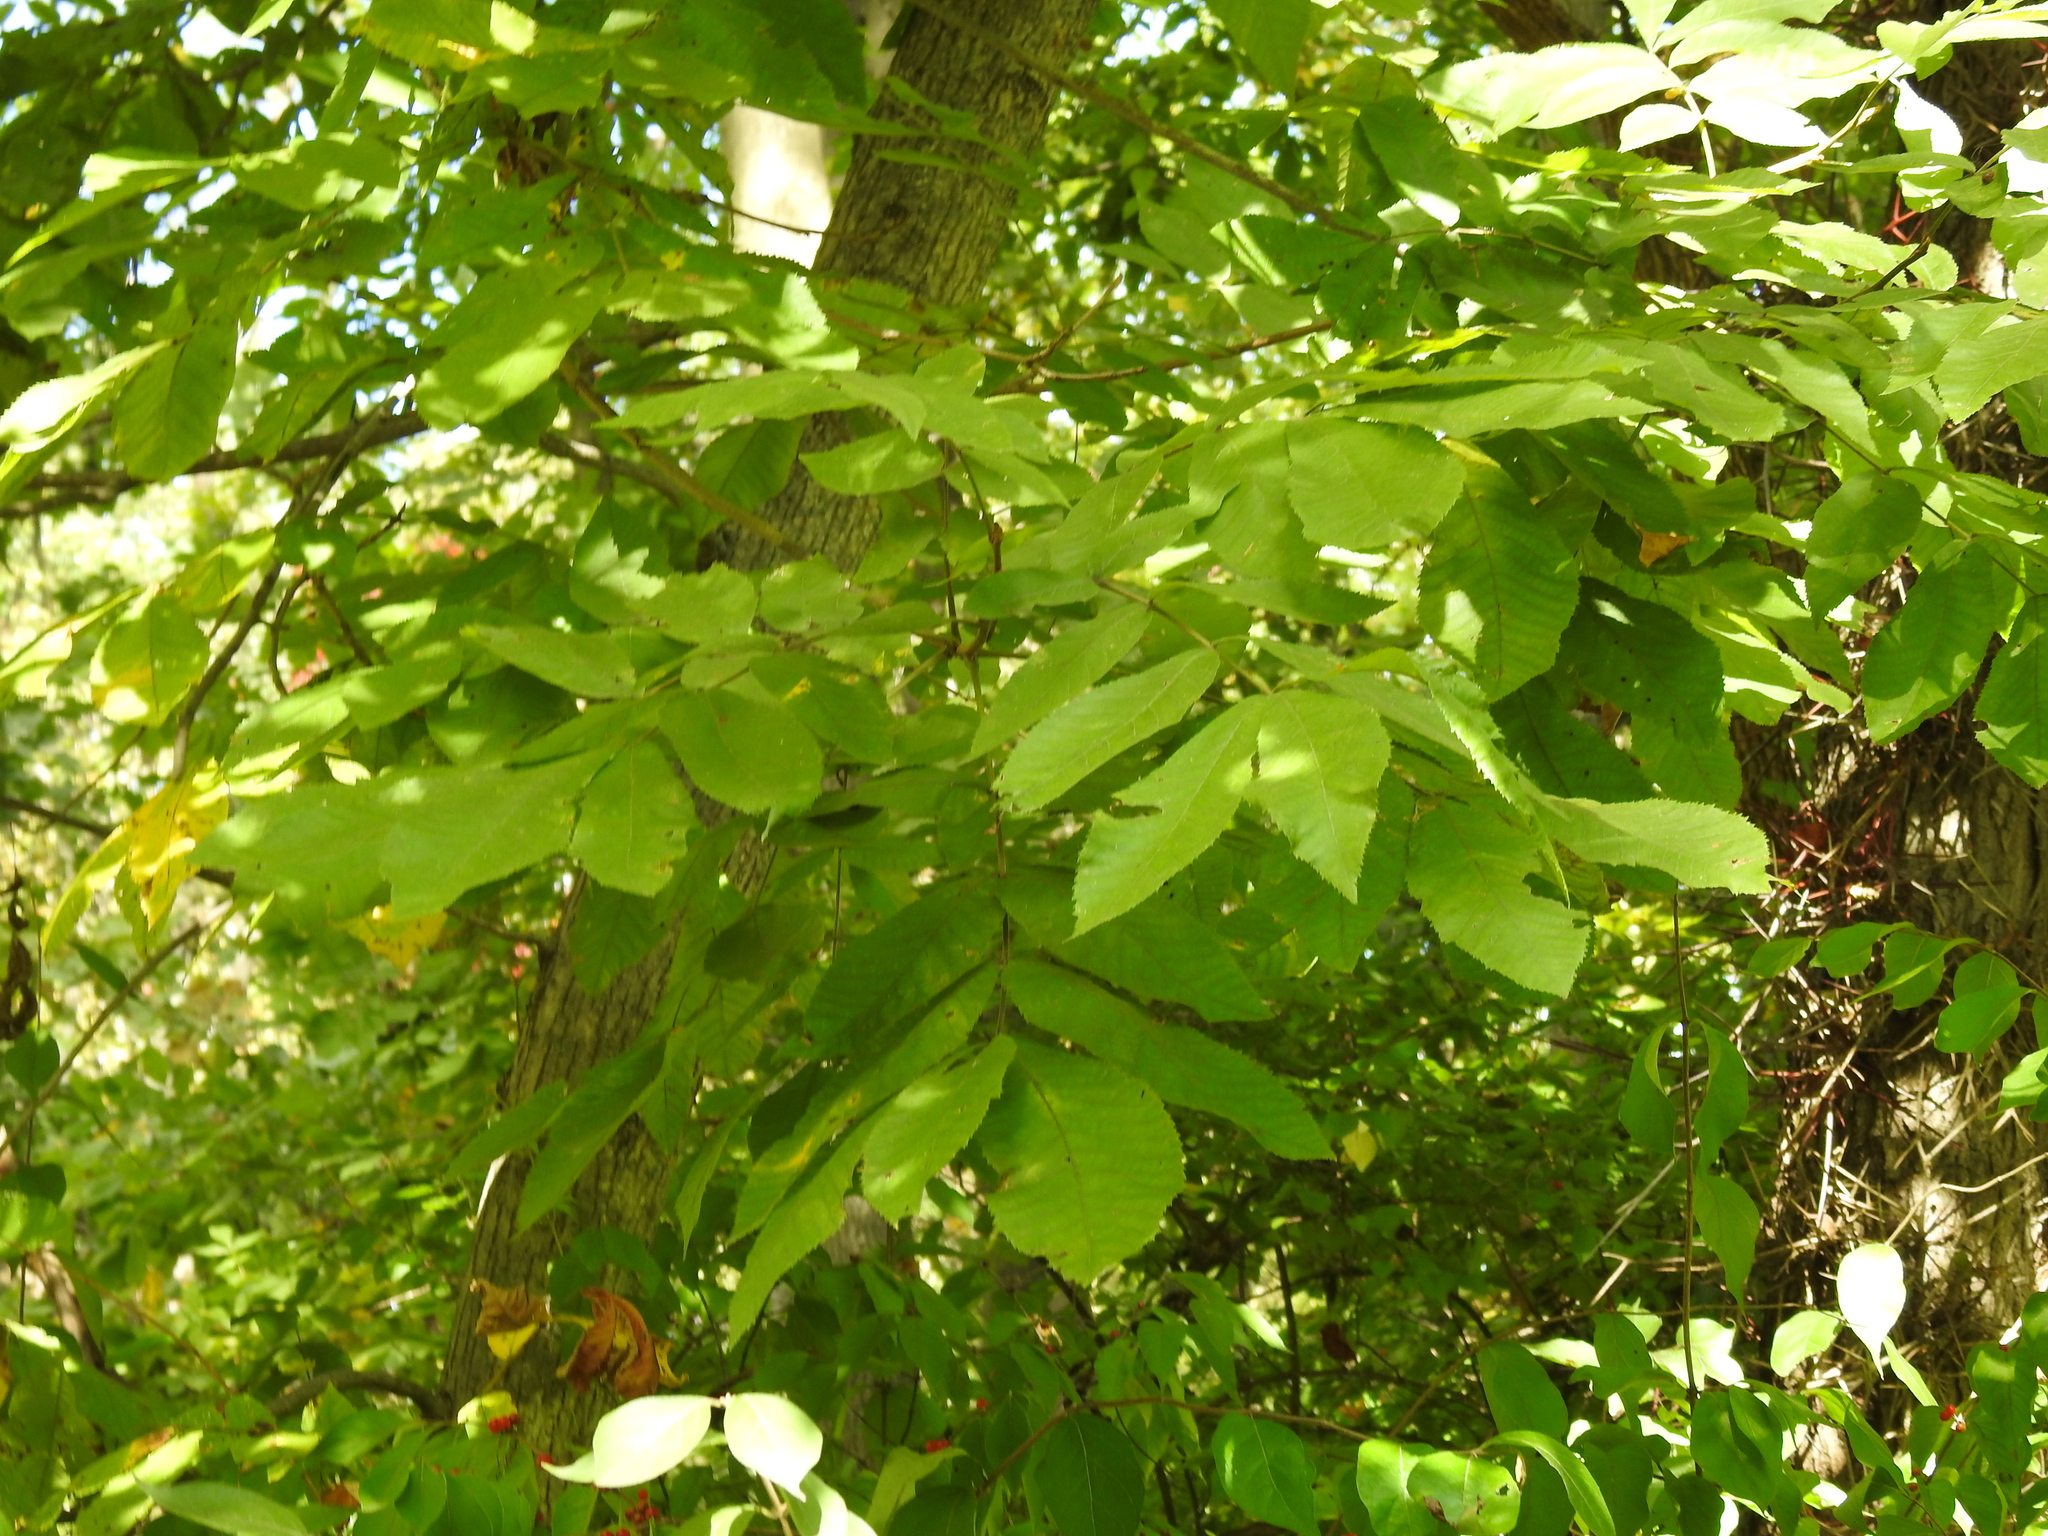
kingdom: Plantae
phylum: Tracheophyta
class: Magnoliopsida
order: Fagales
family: Juglandaceae
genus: Carya
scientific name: Carya cordiformis
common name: Bitternut hickory
